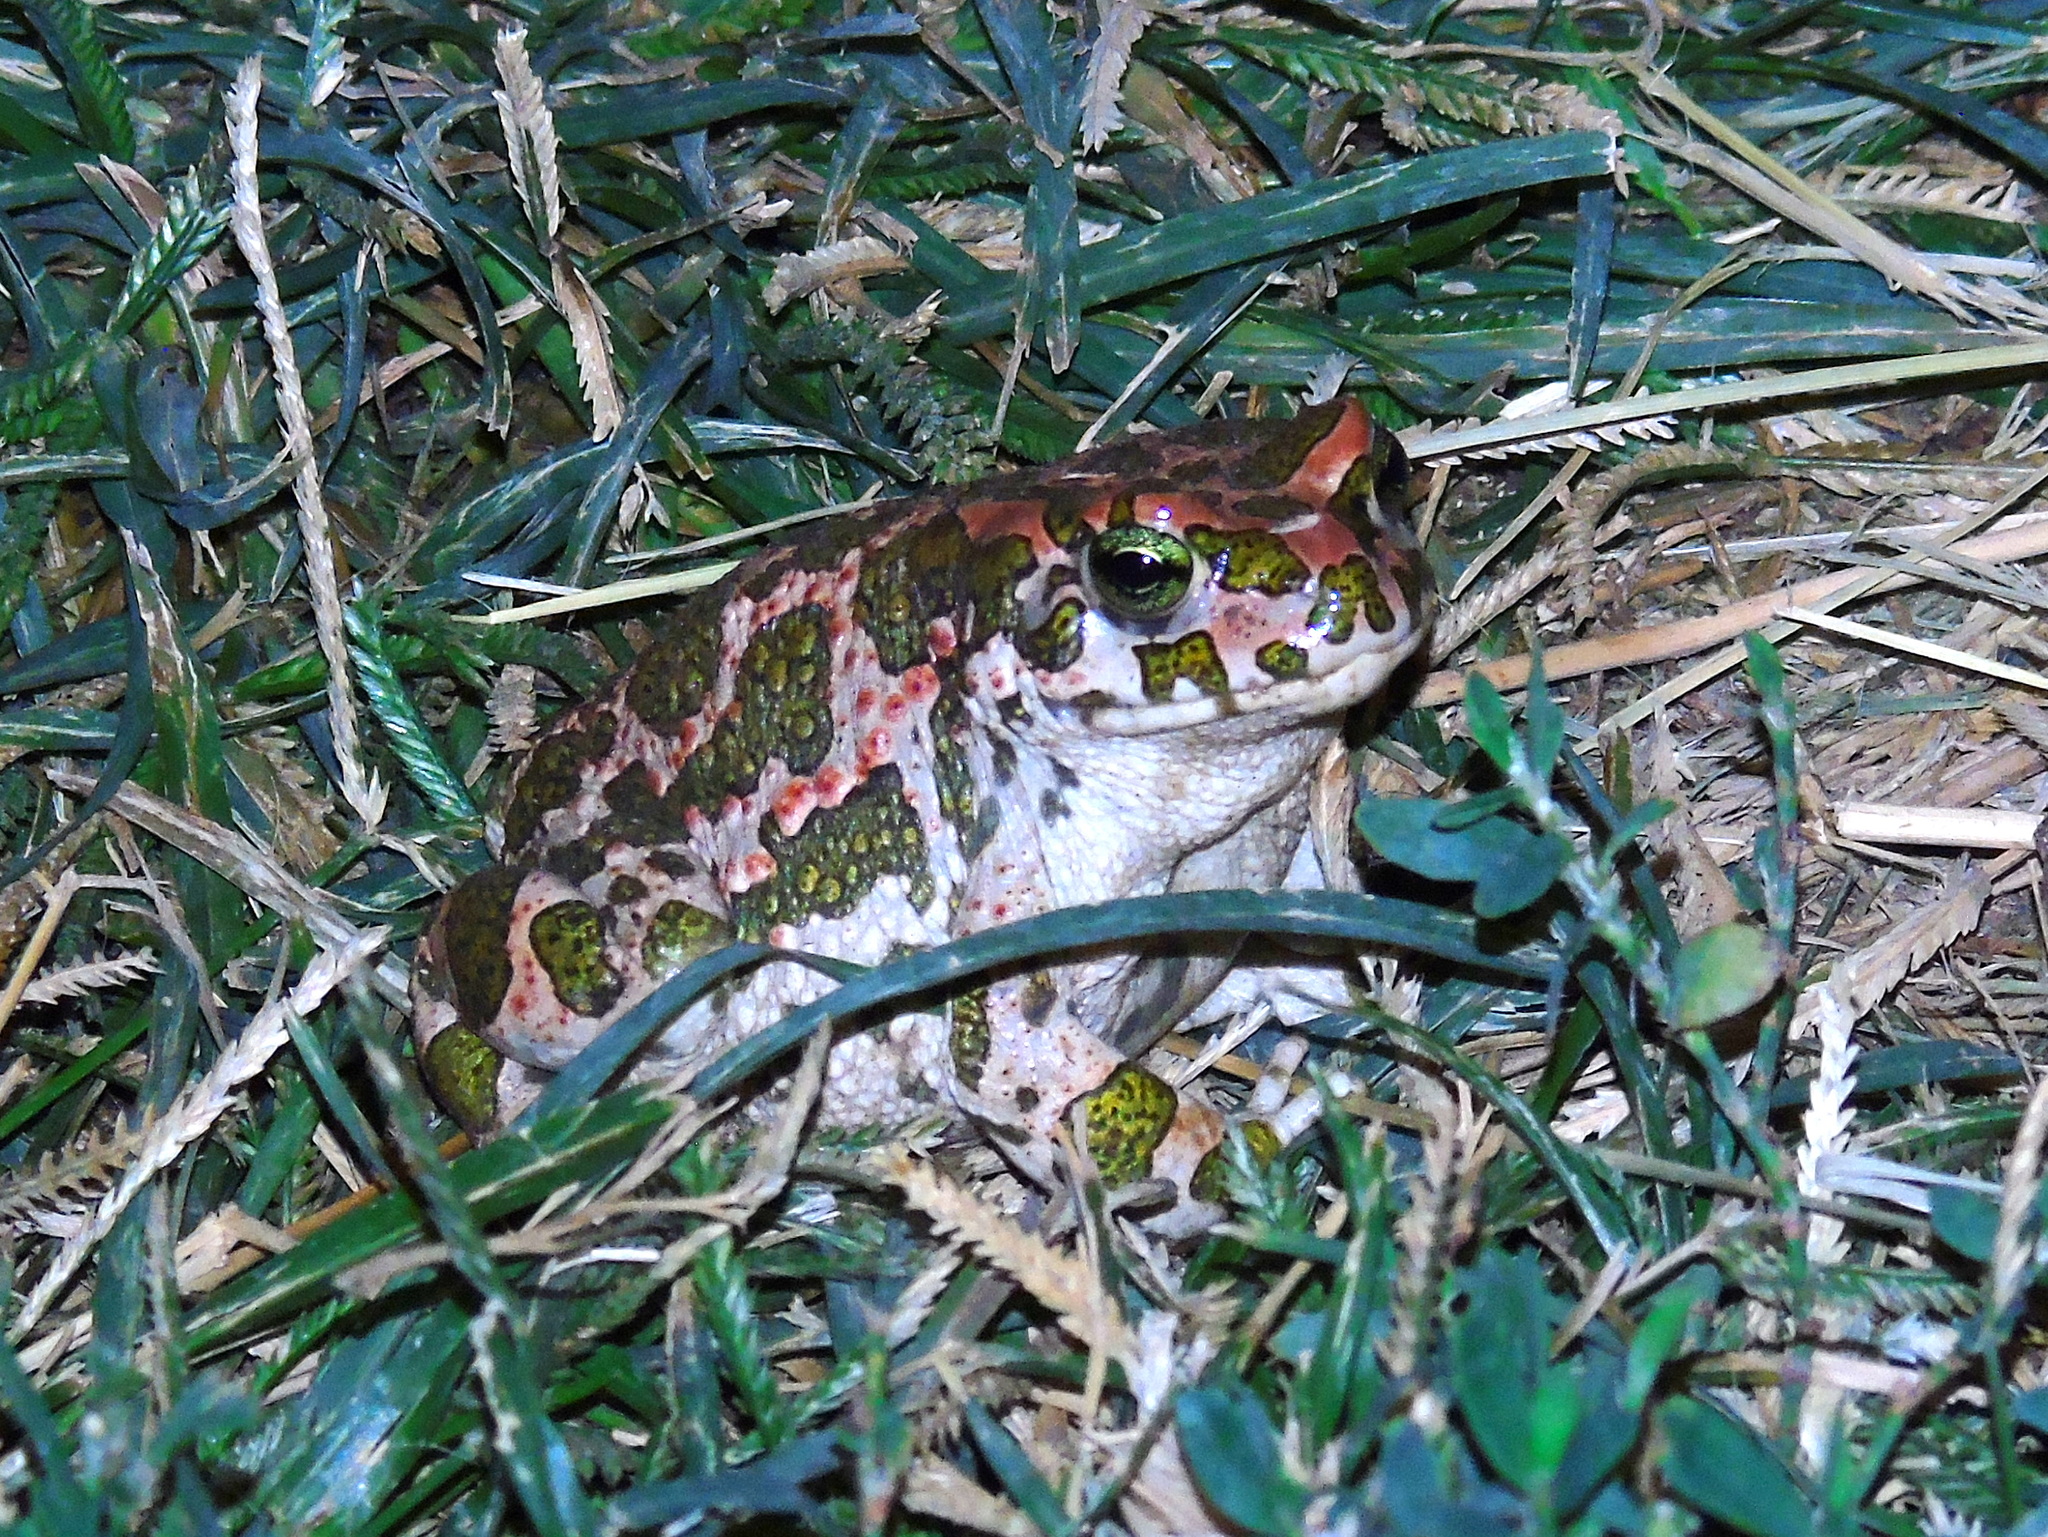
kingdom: Animalia
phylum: Chordata
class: Amphibia
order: Anura
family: Bufonidae
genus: Bufotes
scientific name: Bufotes viridis
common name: European green toad
